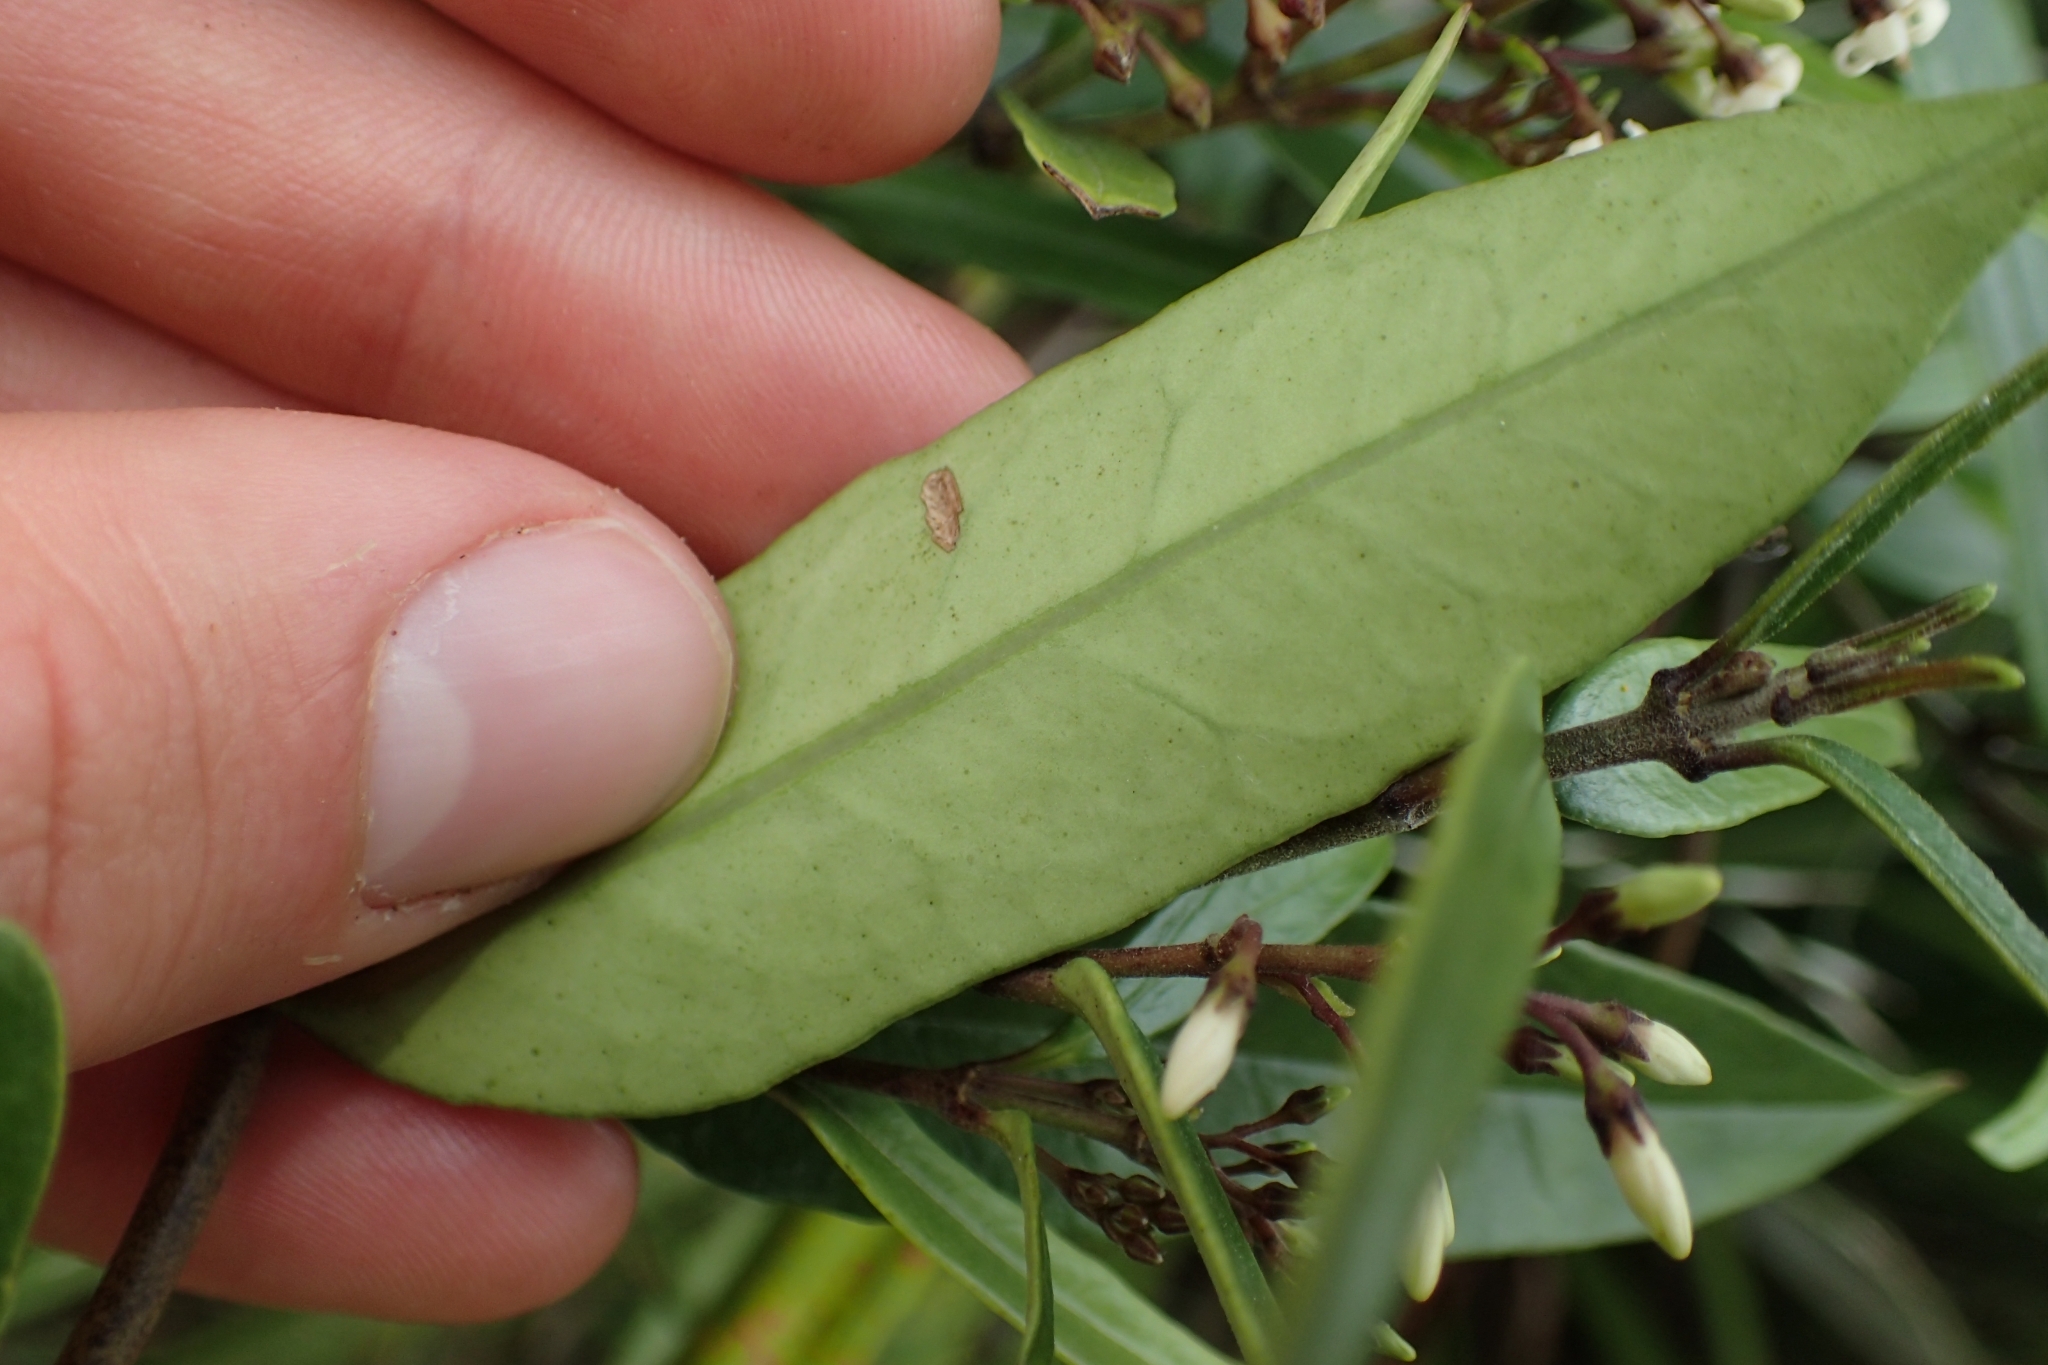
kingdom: Plantae
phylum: Tracheophyta
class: Magnoliopsida
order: Gentianales
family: Apocynaceae
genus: Parsonsia
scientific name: Parsonsia capsularis
